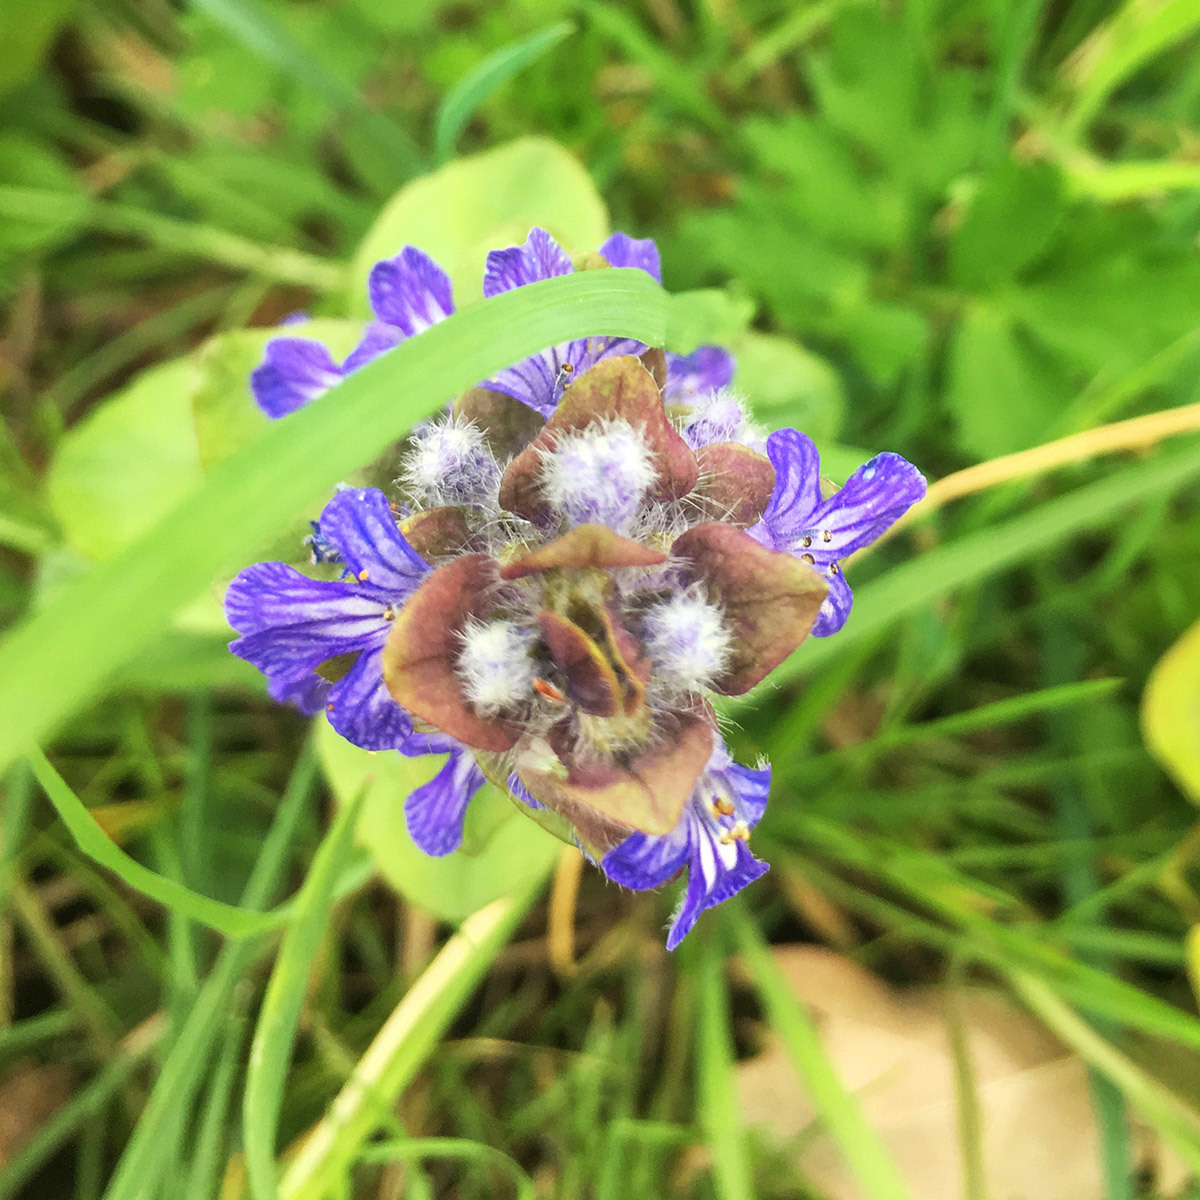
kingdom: Plantae
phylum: Tracheophyta
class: Magnoliopsida
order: Lamiales
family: Lamiaceae
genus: Ajuga
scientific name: Ajuga reptans
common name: Bugle
